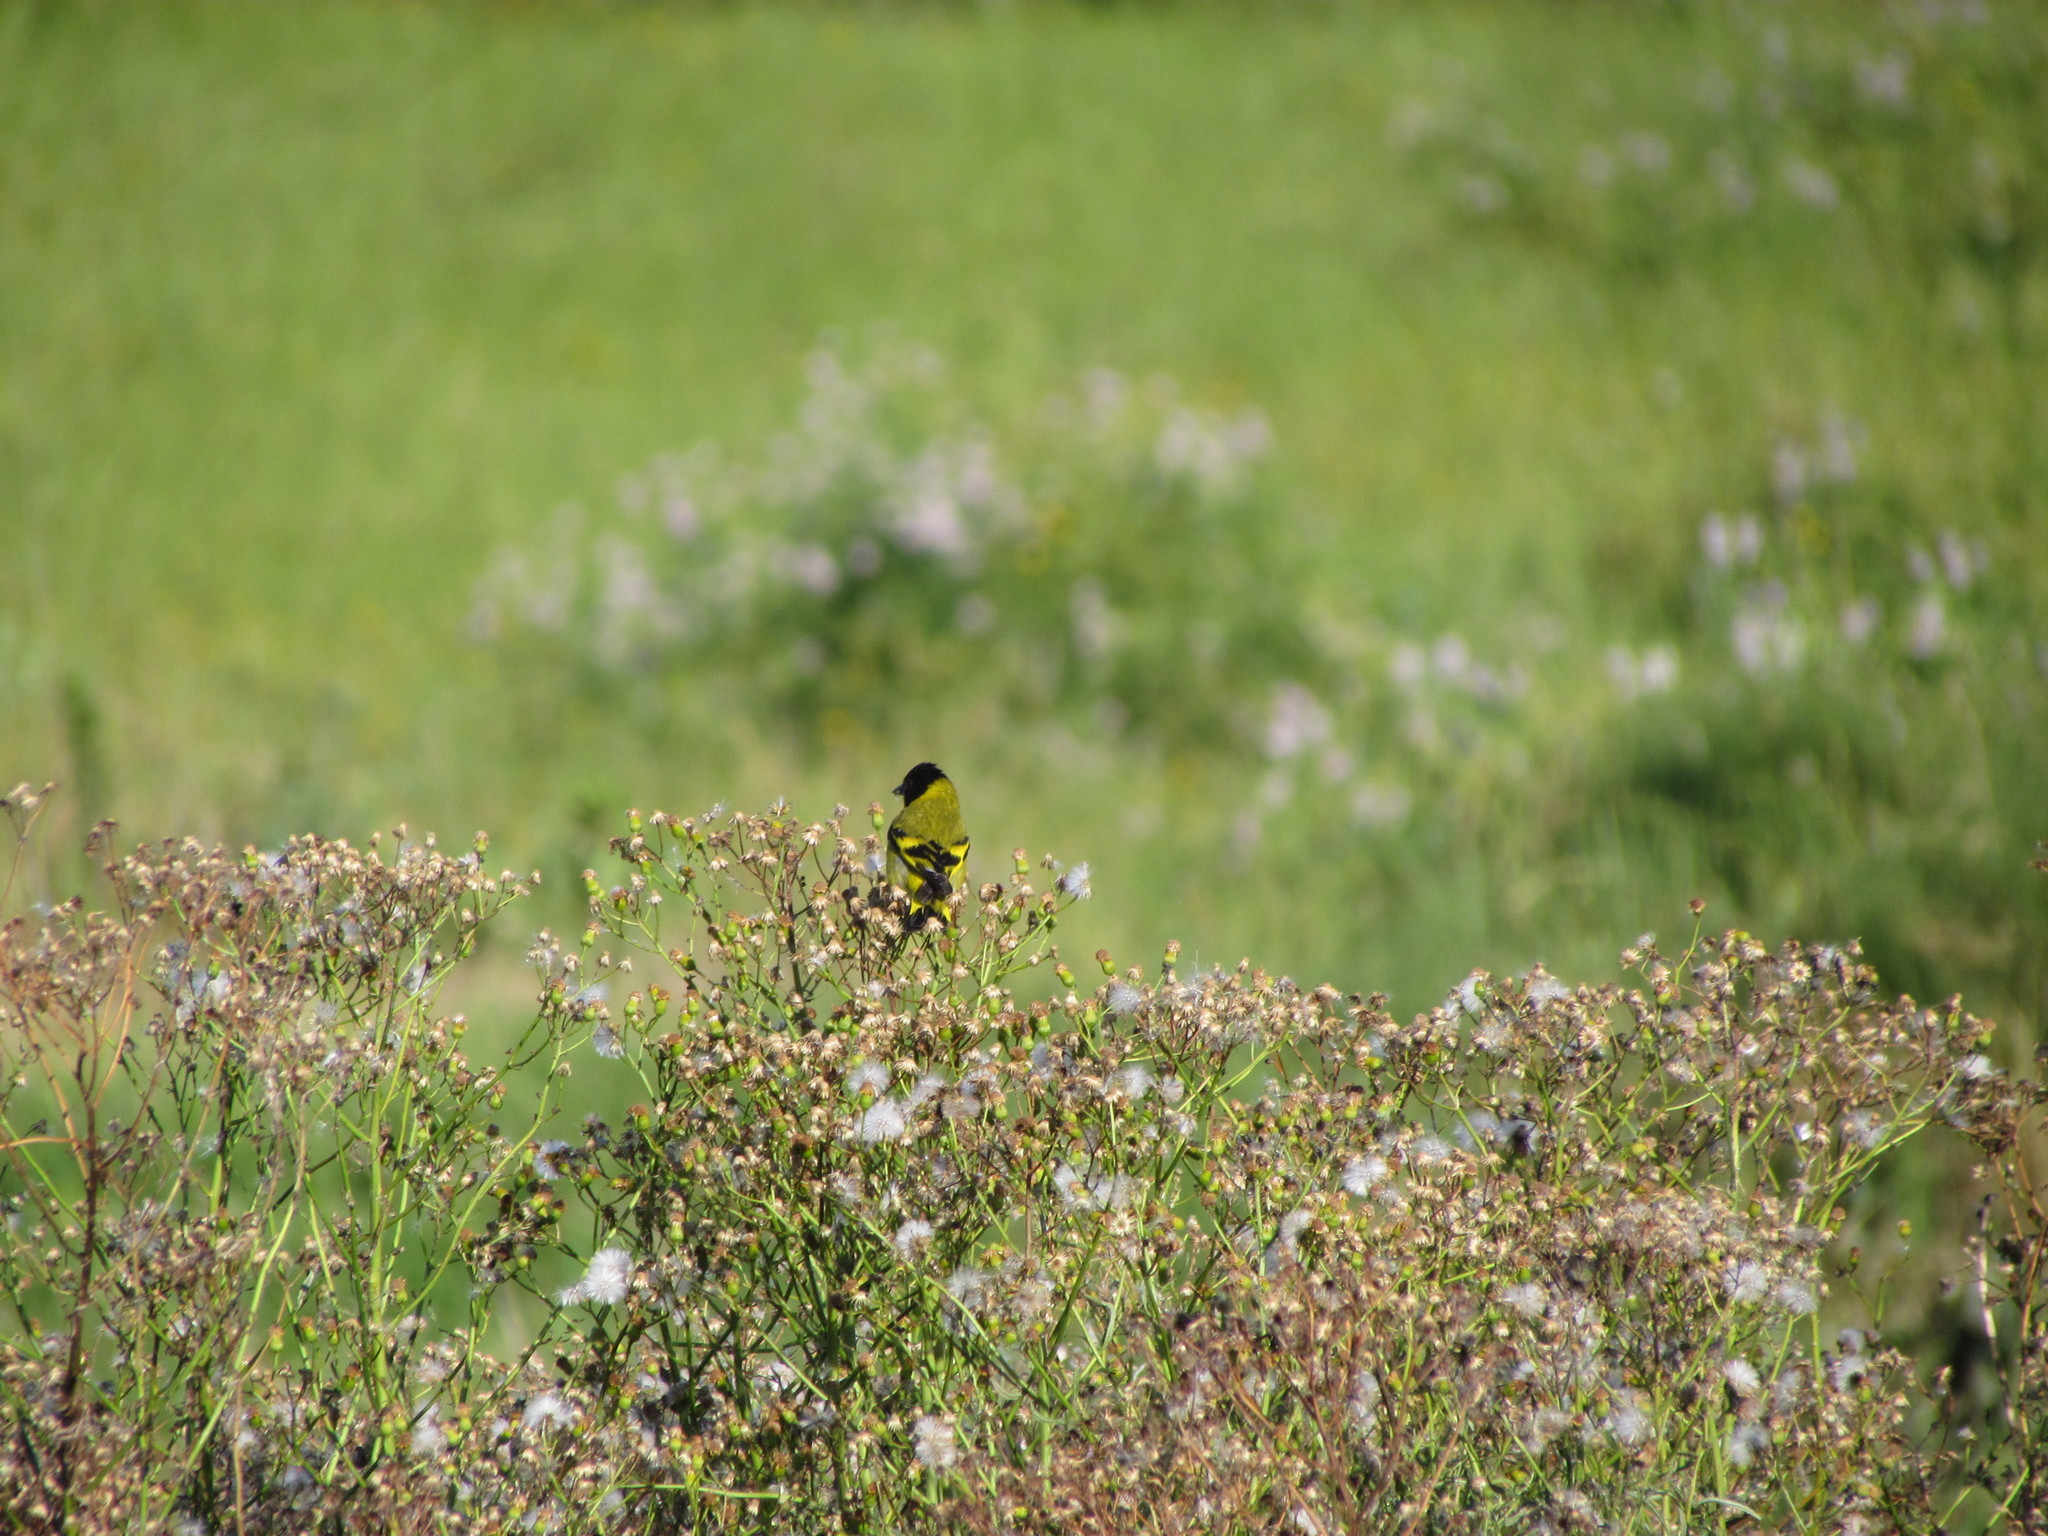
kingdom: Animalia
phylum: Chordata
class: Aves
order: Passeriformes
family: Fringillidae
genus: Spinus
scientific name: Spinus magellanicus
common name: Hooded siskin
